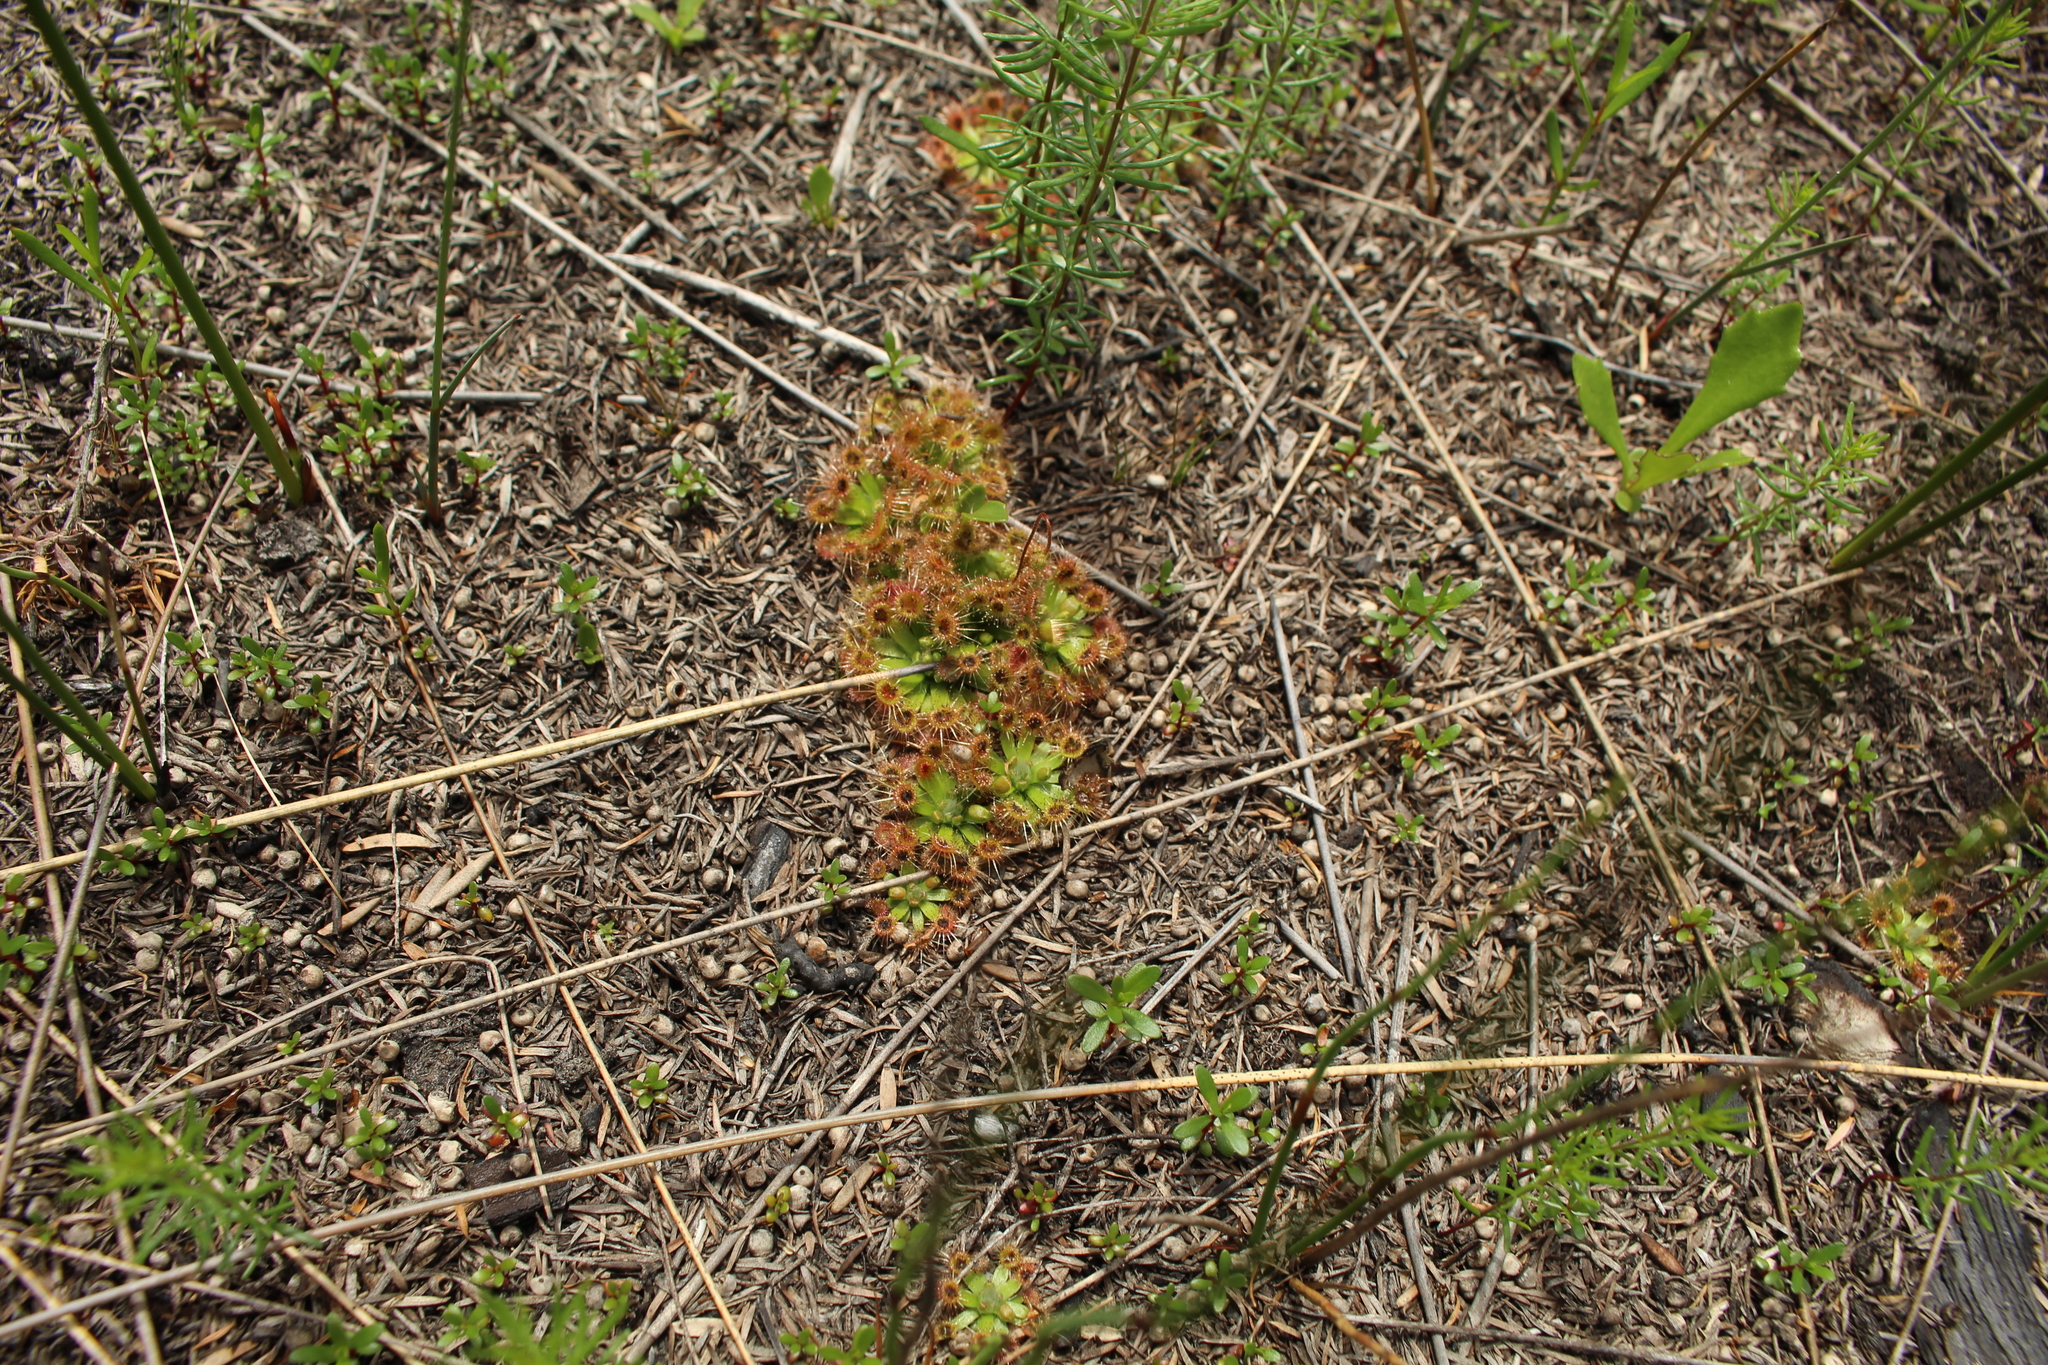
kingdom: Plantae
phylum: Tracheophyta
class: Magnoliopsida
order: Caryophyllales
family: Droseraceae
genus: Drosera
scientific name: Drosera pulchella
